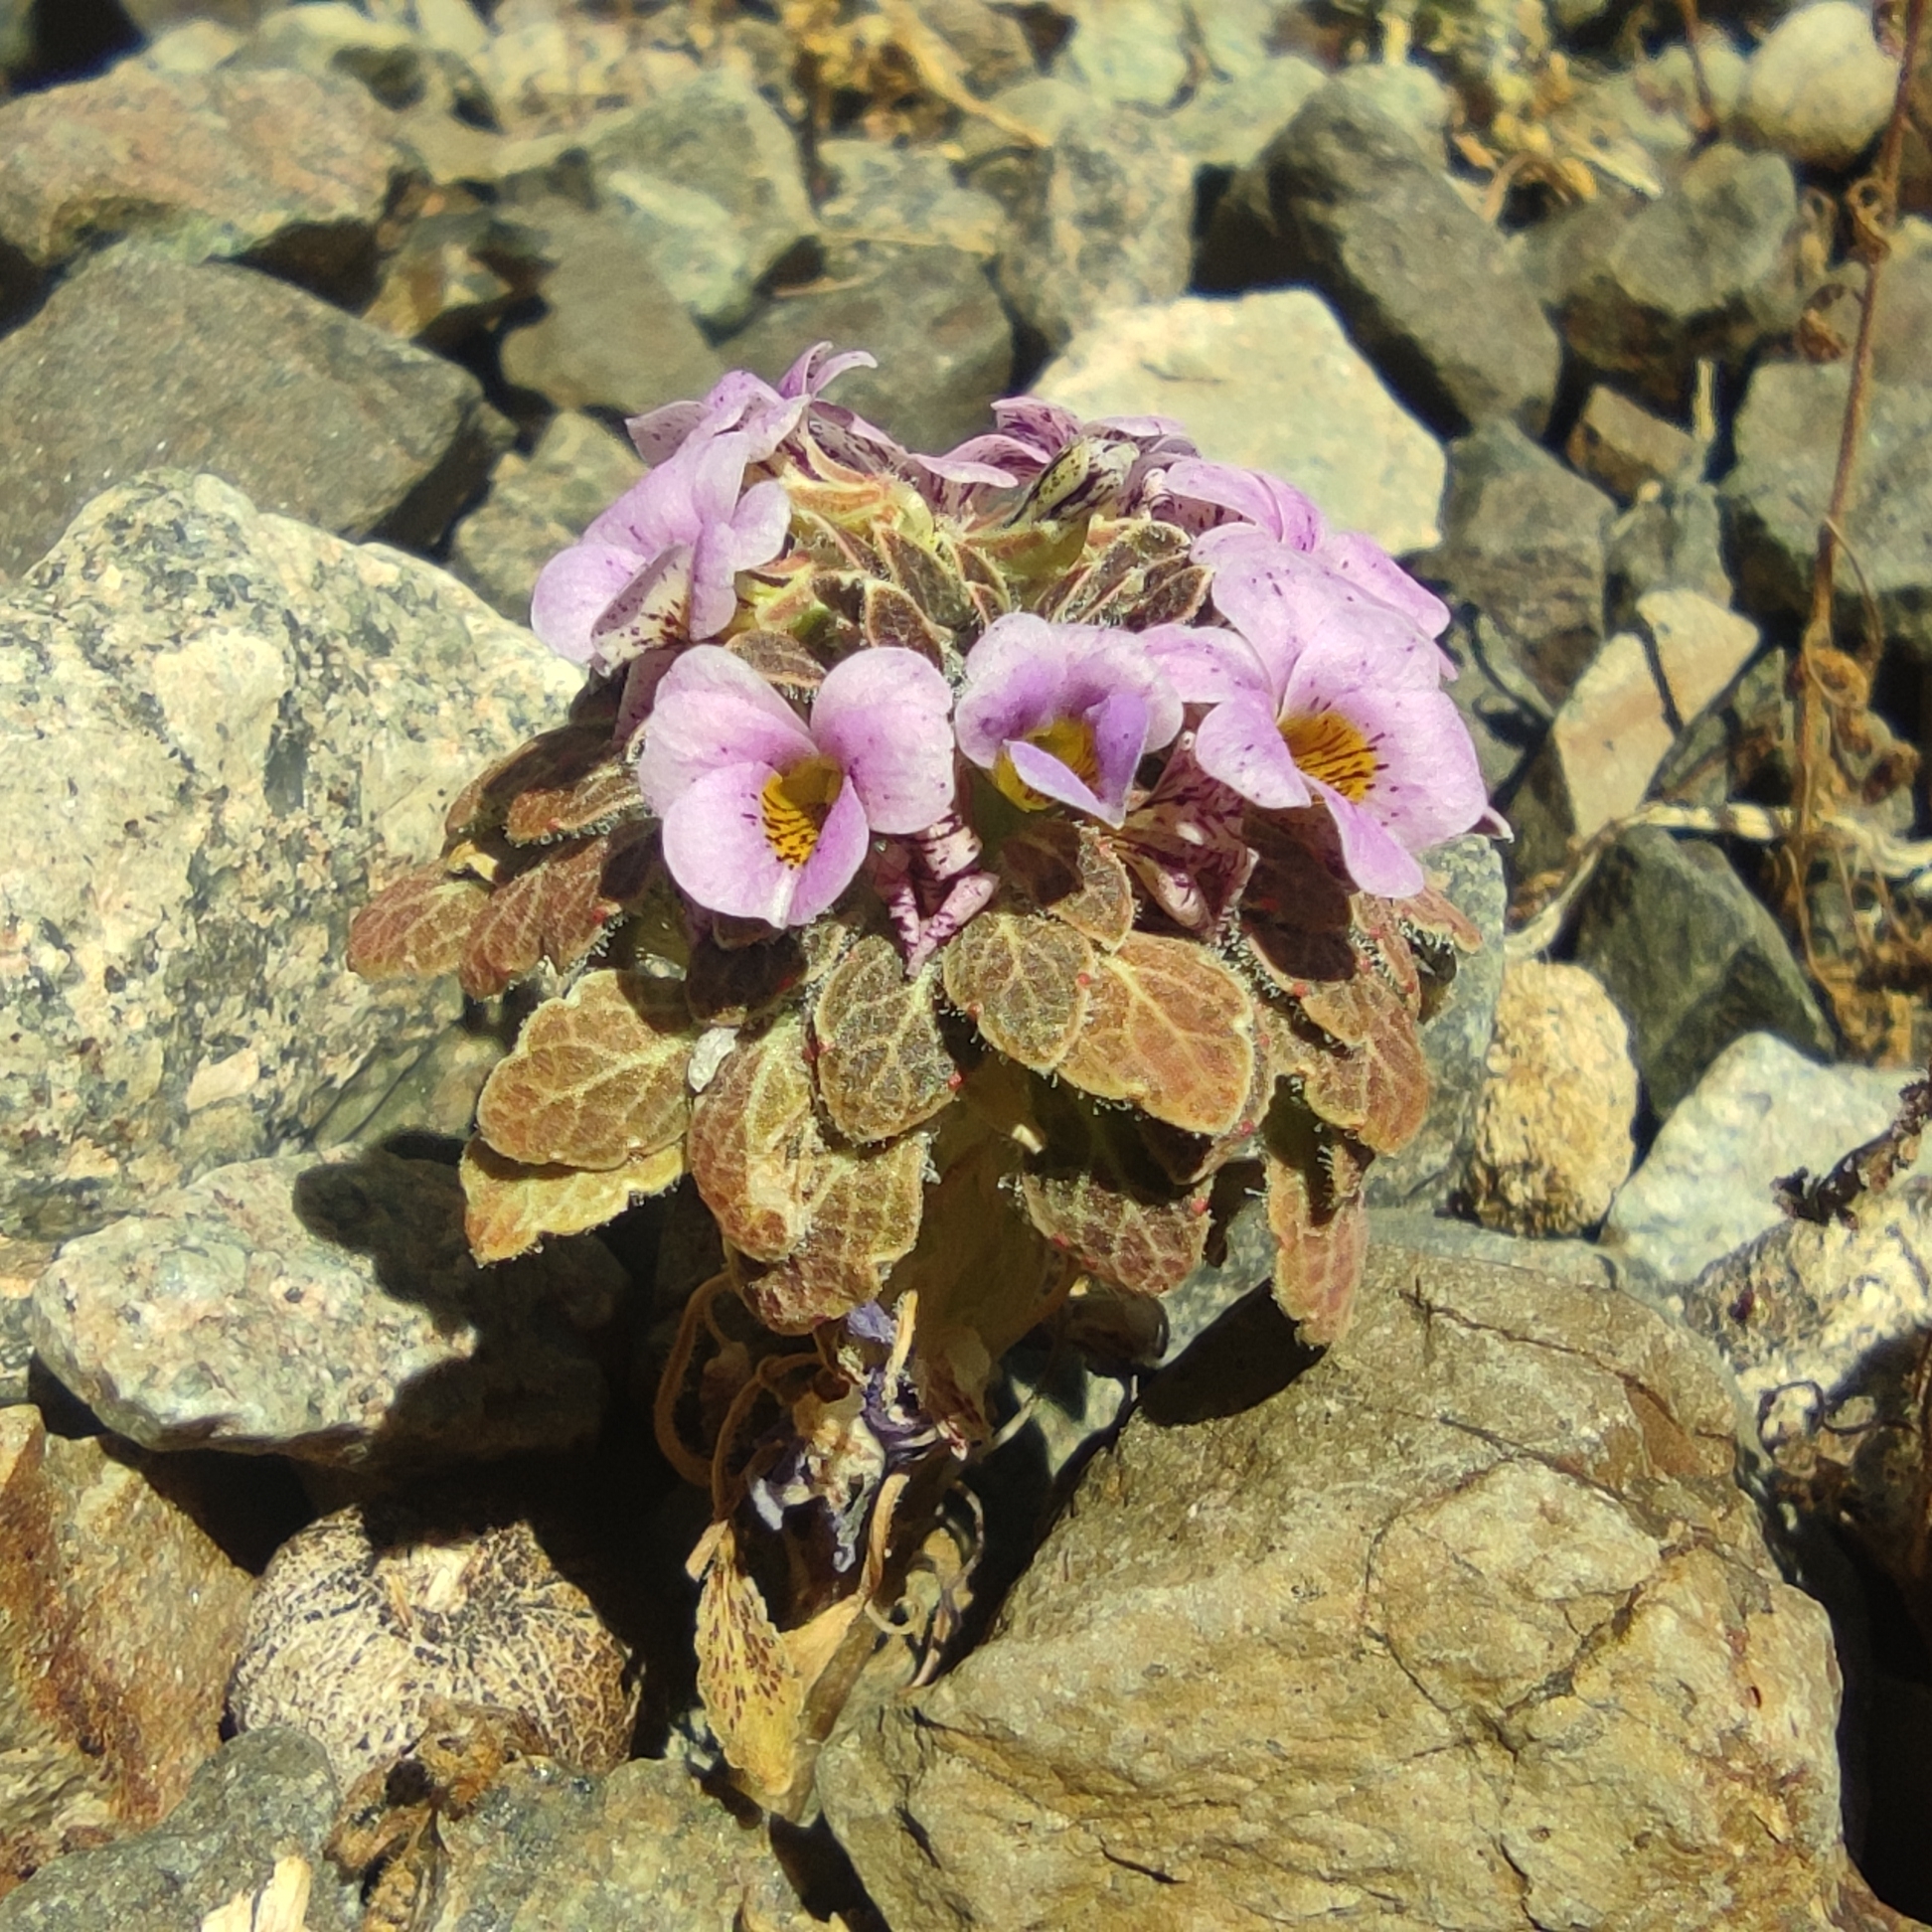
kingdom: Plantae
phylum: Tracheophyta
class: Magnoliopsida
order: Malpighiales
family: Violaceae
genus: Viola
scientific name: Viola escarapela
